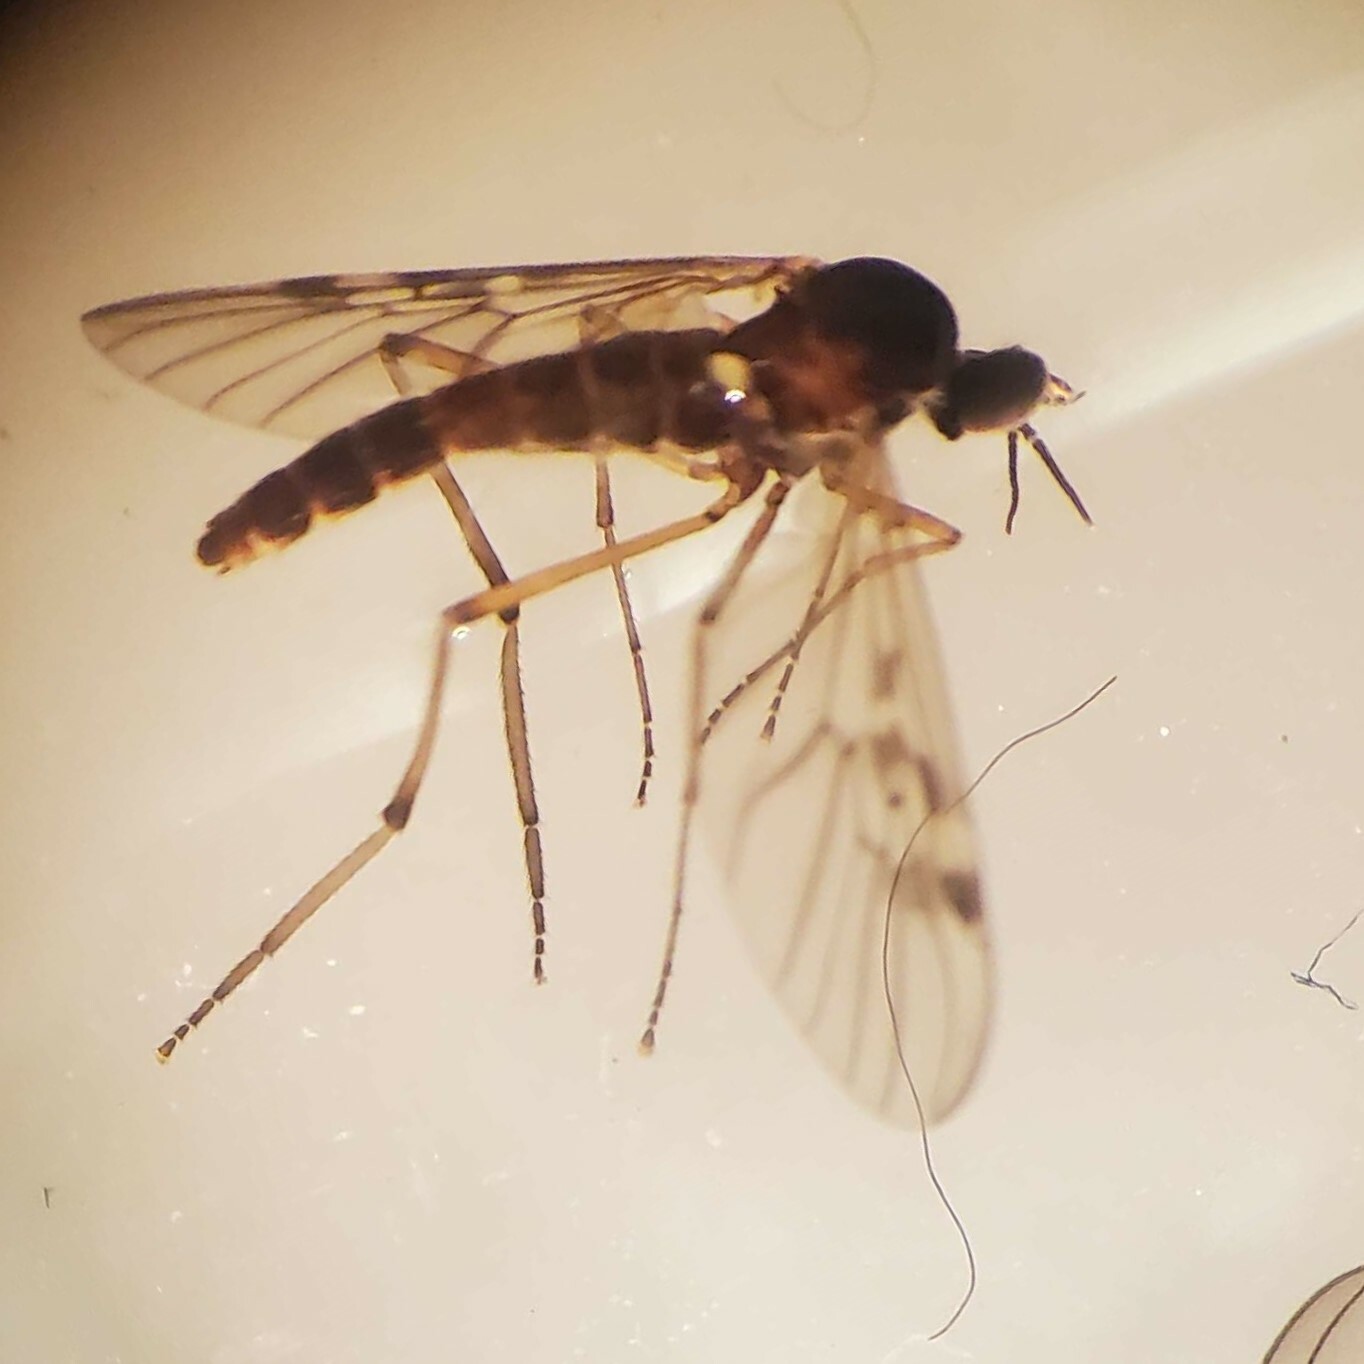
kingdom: Animalia
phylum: Arthropoda
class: Insecta
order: Diptera
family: Anisopodidae
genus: Sylvicola
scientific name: Sylvicola punctatus
